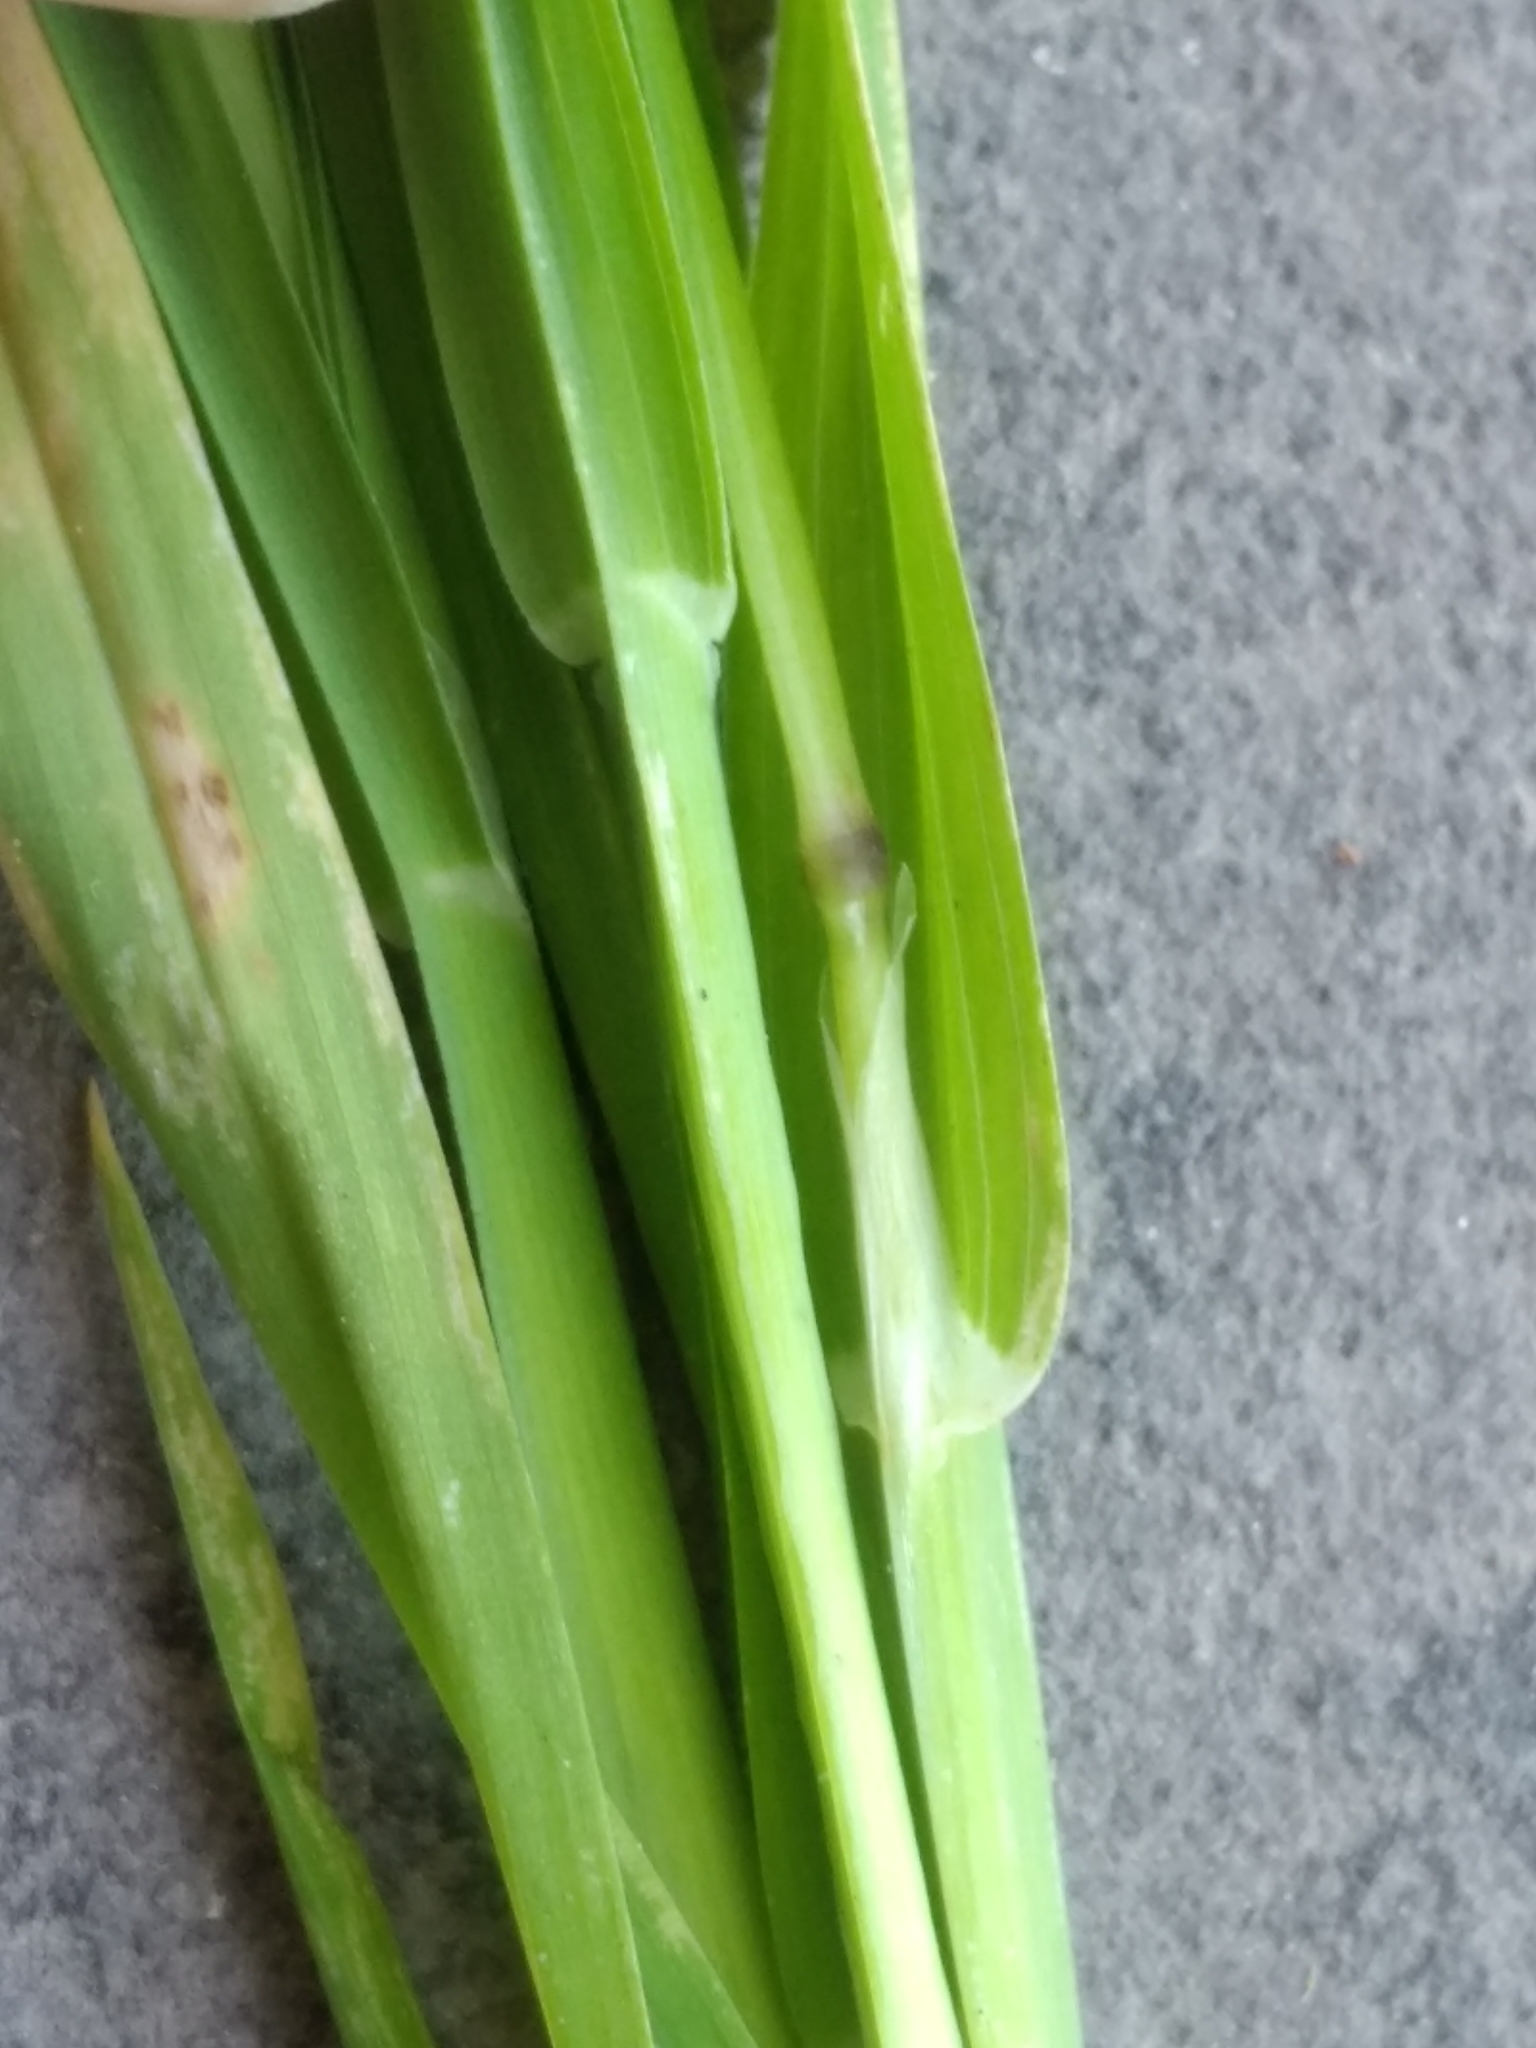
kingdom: Plantae
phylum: Tracheophyta
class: Liliopsida
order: Poales
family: Poaceae
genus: Lamarckia
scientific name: Lamarckia aurea
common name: Golden dog's-tail
